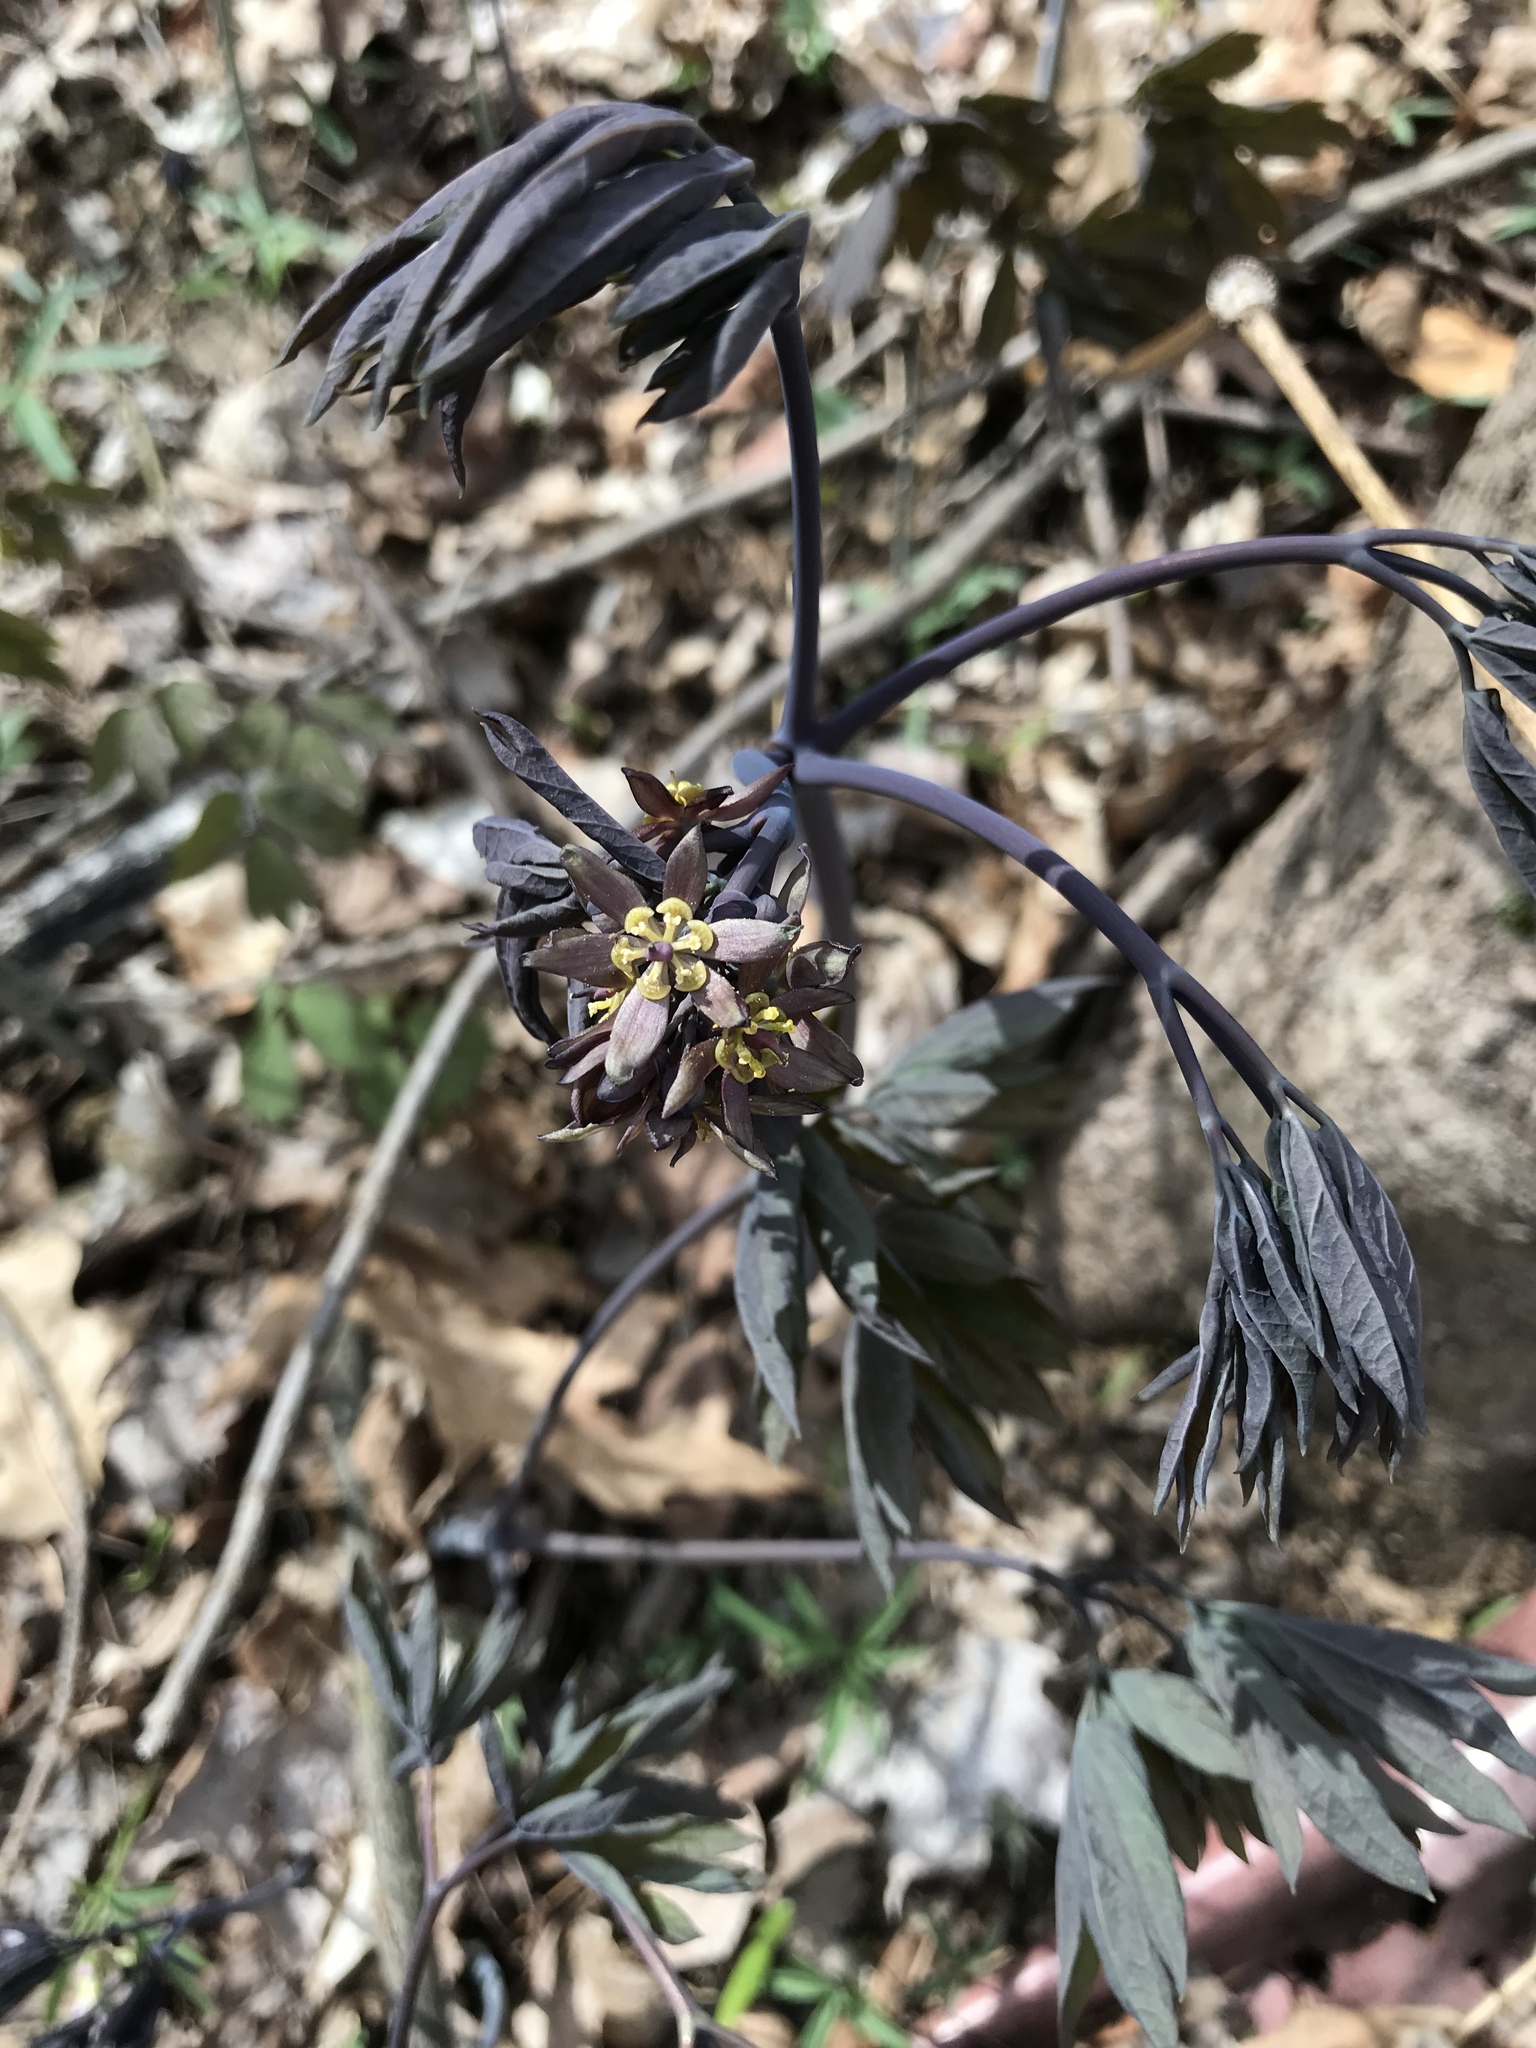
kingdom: Plantae
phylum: Tracheophyta
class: Magnoliopsida
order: Ranunculales
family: Berberidaceae
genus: Caulophyllum
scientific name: Caulophyllum giganteum
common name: Blue cohosh
